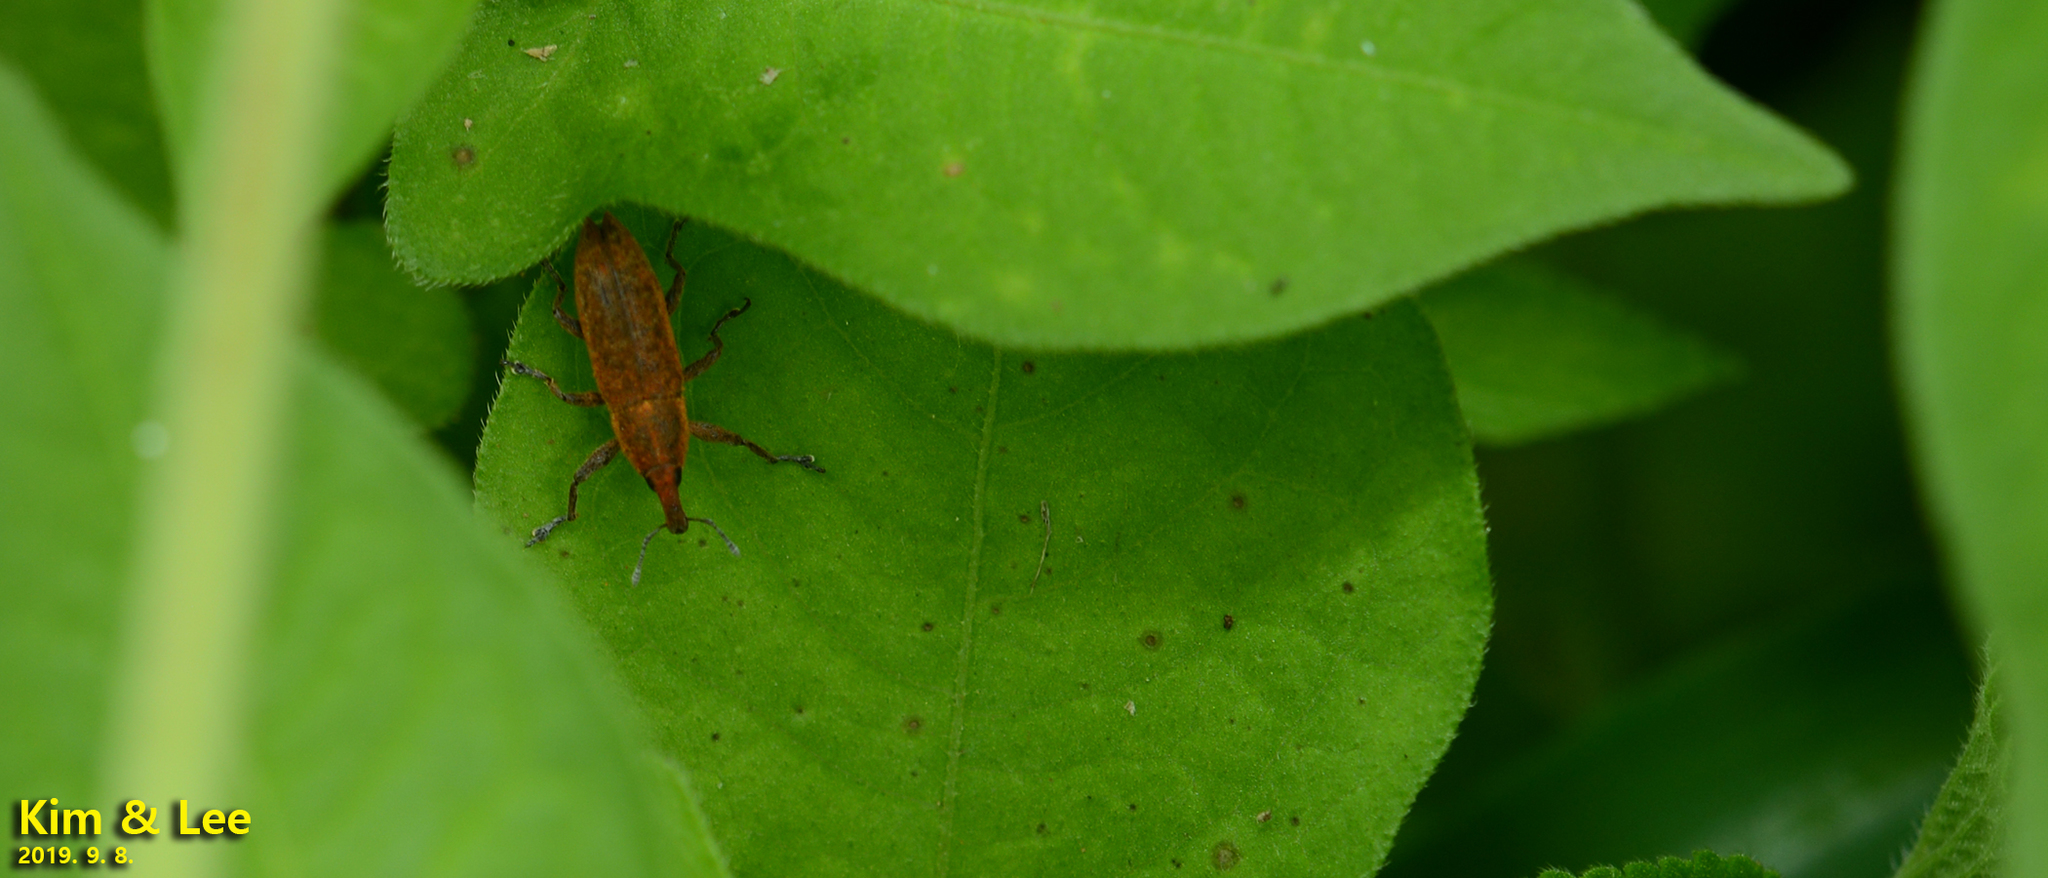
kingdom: Animalia
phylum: Arthropoda
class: Insecta
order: Coleoptera
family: Curculionidae
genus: Lixus
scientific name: Lixus impressiventris
